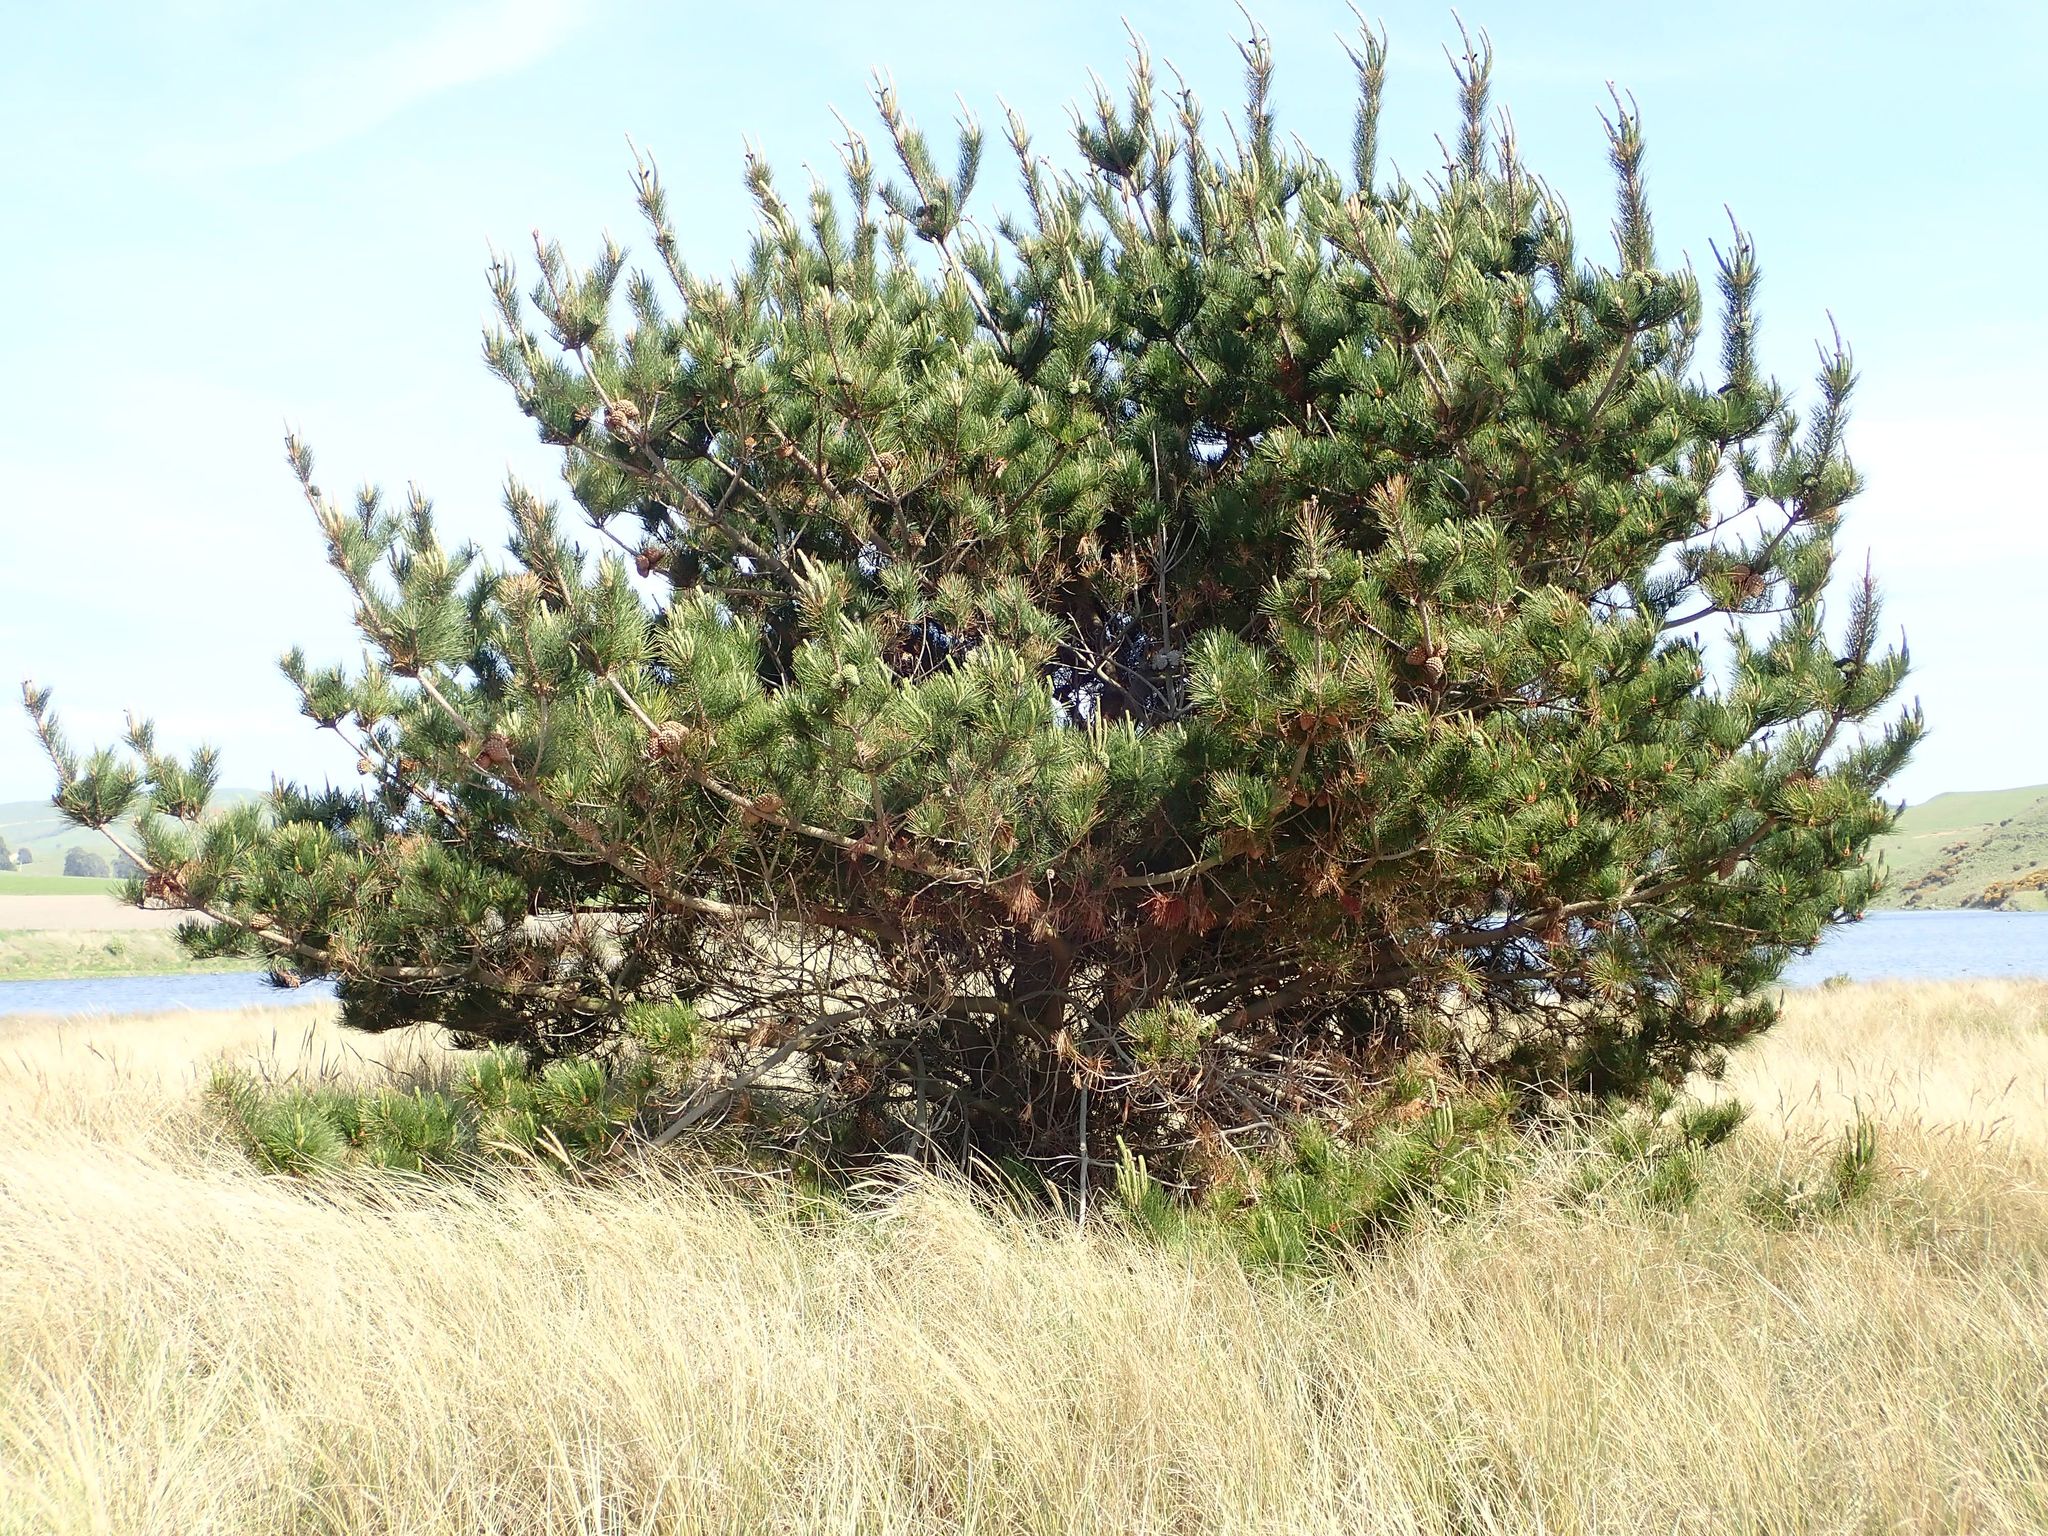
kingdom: Plantae
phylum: Tracheophyta
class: Pinopsida
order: Pinales
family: Pinaceae
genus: Pinus
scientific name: Pinus radiata
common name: Monterey pine
